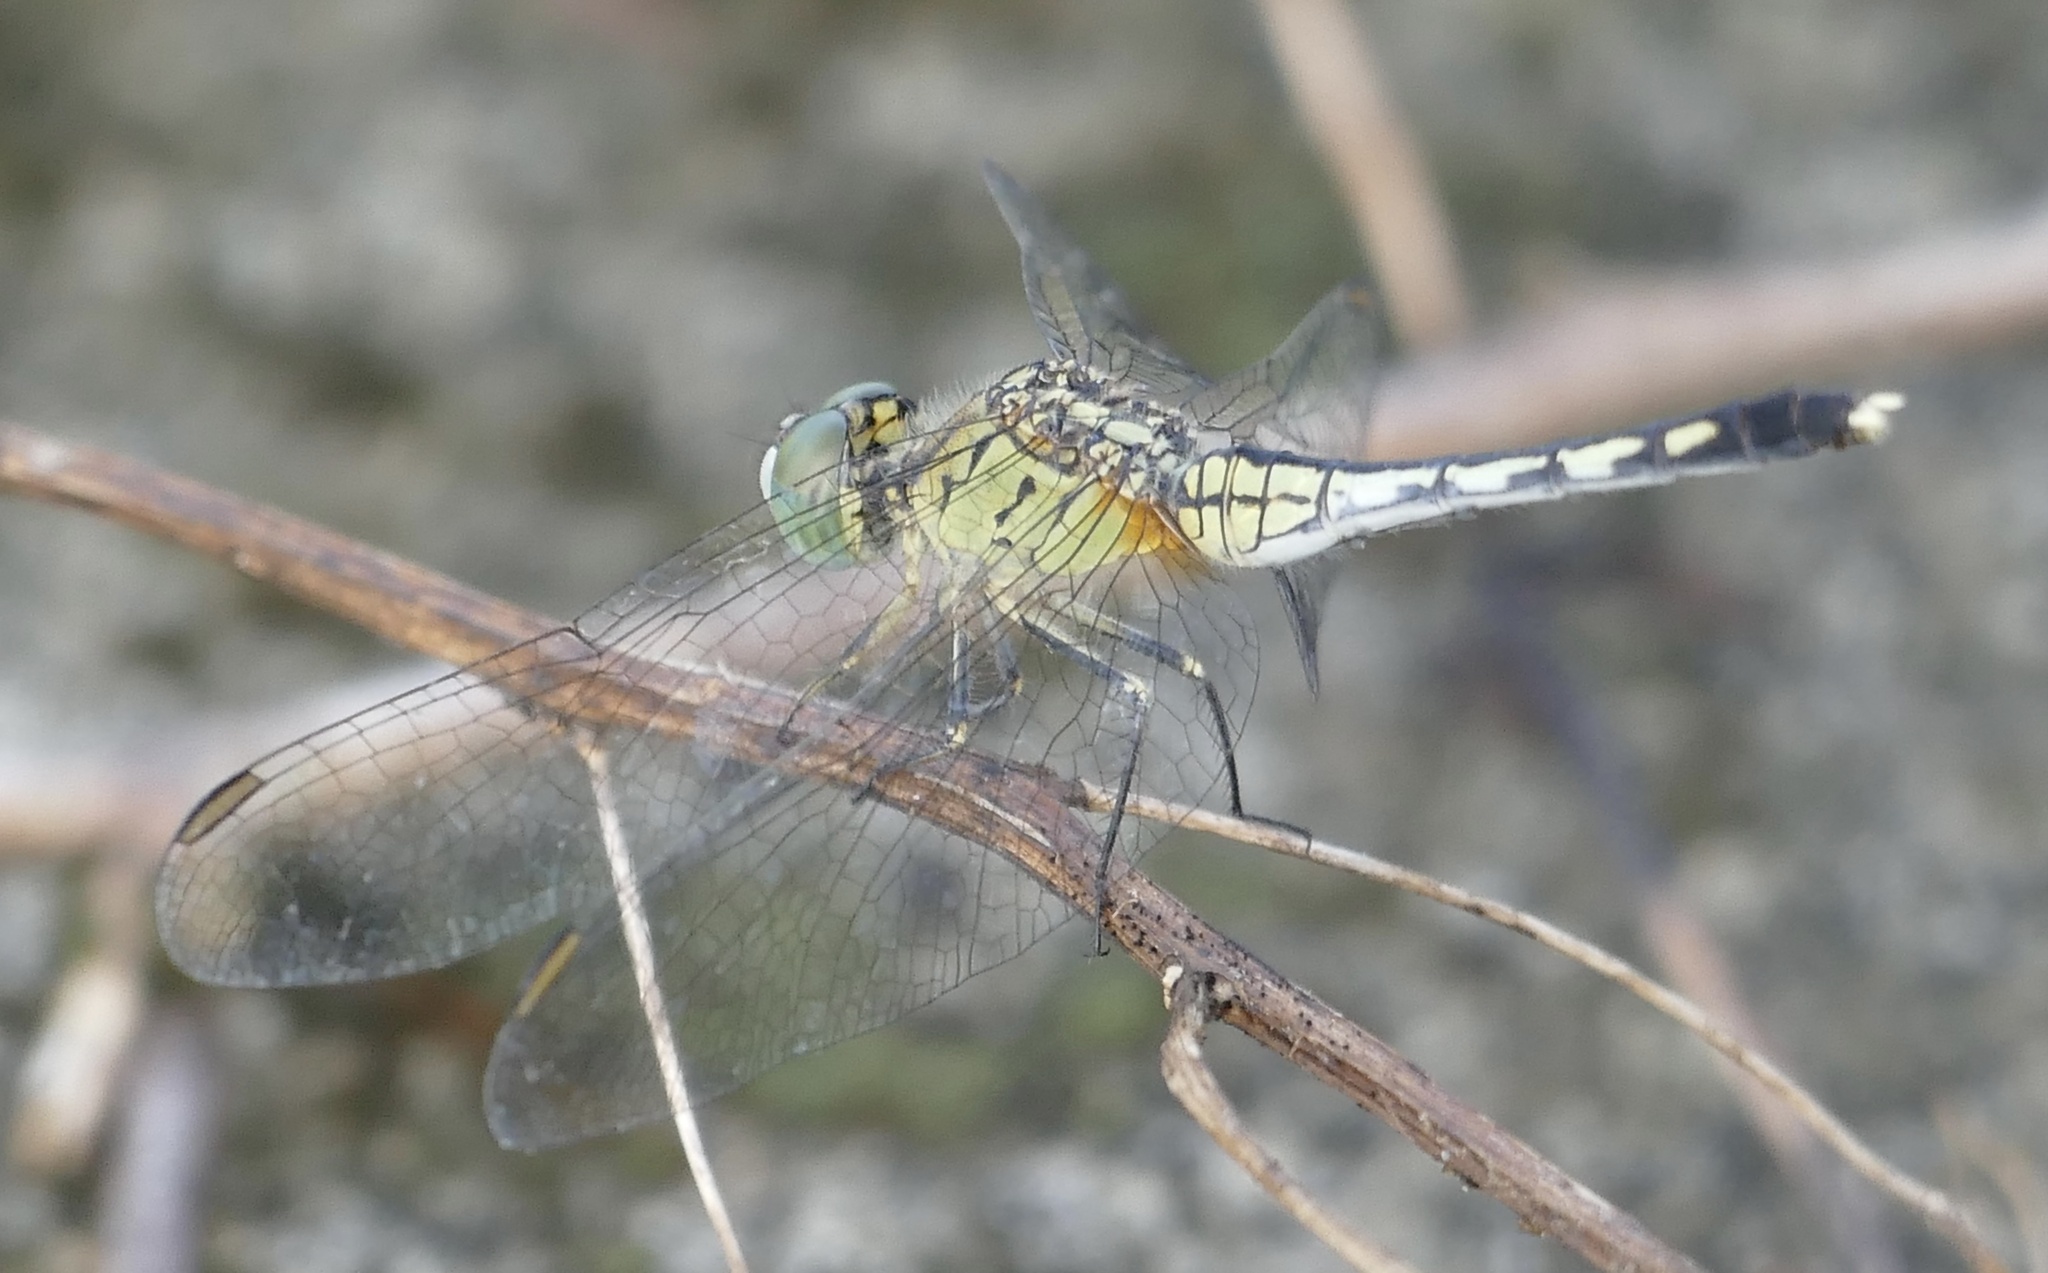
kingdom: Animalia
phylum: Arthropoda
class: Insecta
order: Odonata
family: Libellulidae
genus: Diplacodes
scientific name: Diplacodes trivialis
